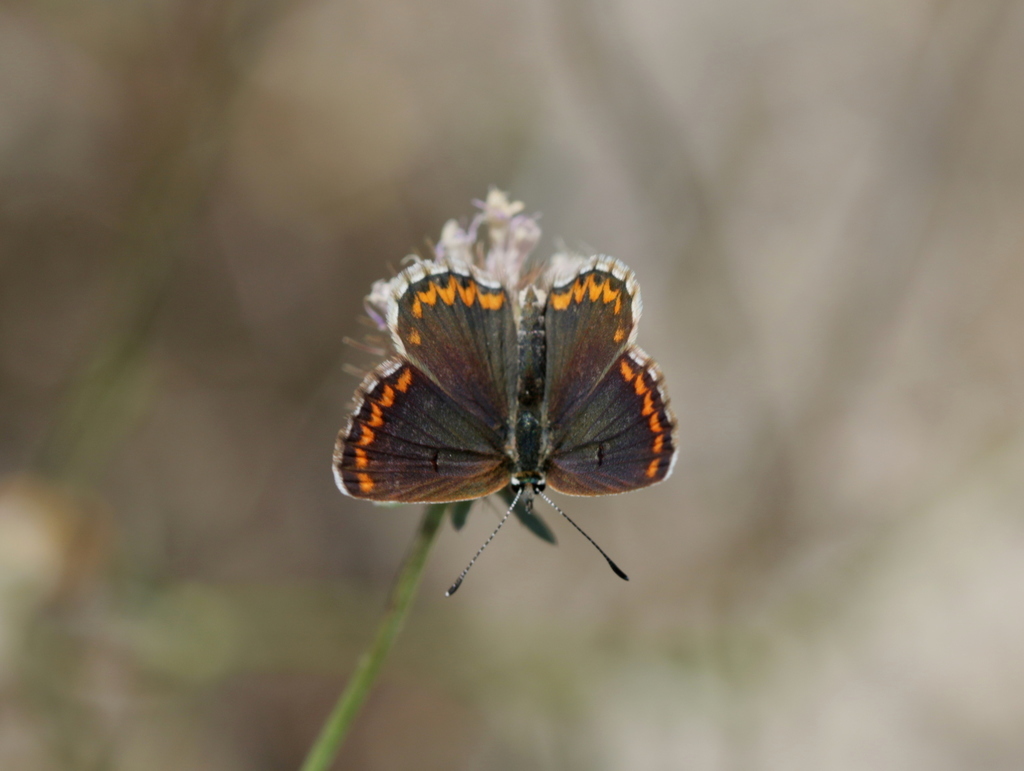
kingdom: Animalia
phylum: Arthropoda
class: Insecta
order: Lepidoptera
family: Lycaenidae
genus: Aricia
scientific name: Aricia cramera
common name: Eschscholtz´s brown  argus
